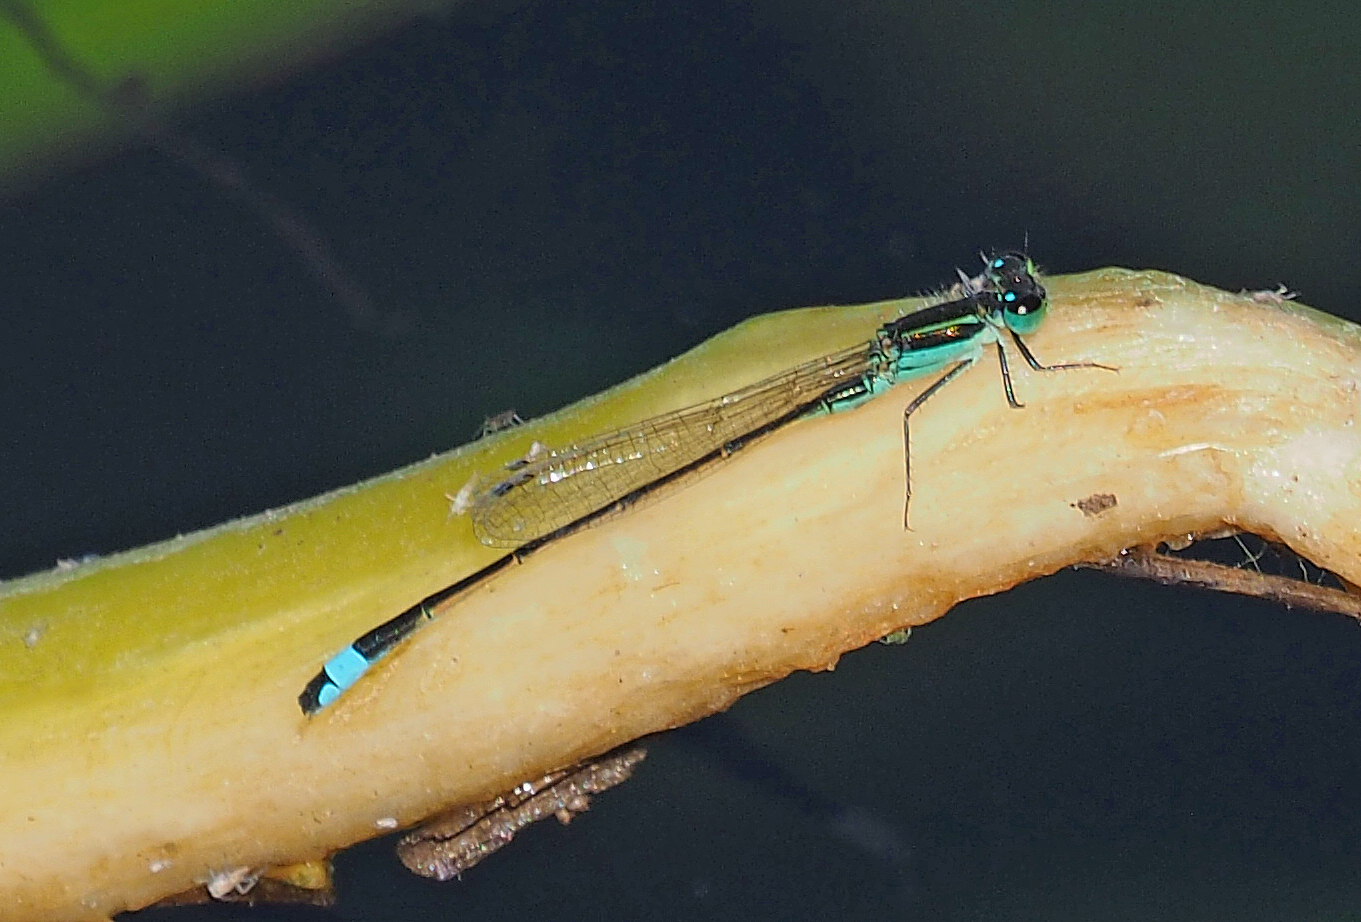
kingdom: Animalia
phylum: Arthropoda
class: Insecta
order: Odonata
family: Coenagrionidae
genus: Ischnura
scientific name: Ischnura ramburii
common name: Rambur's forktail
